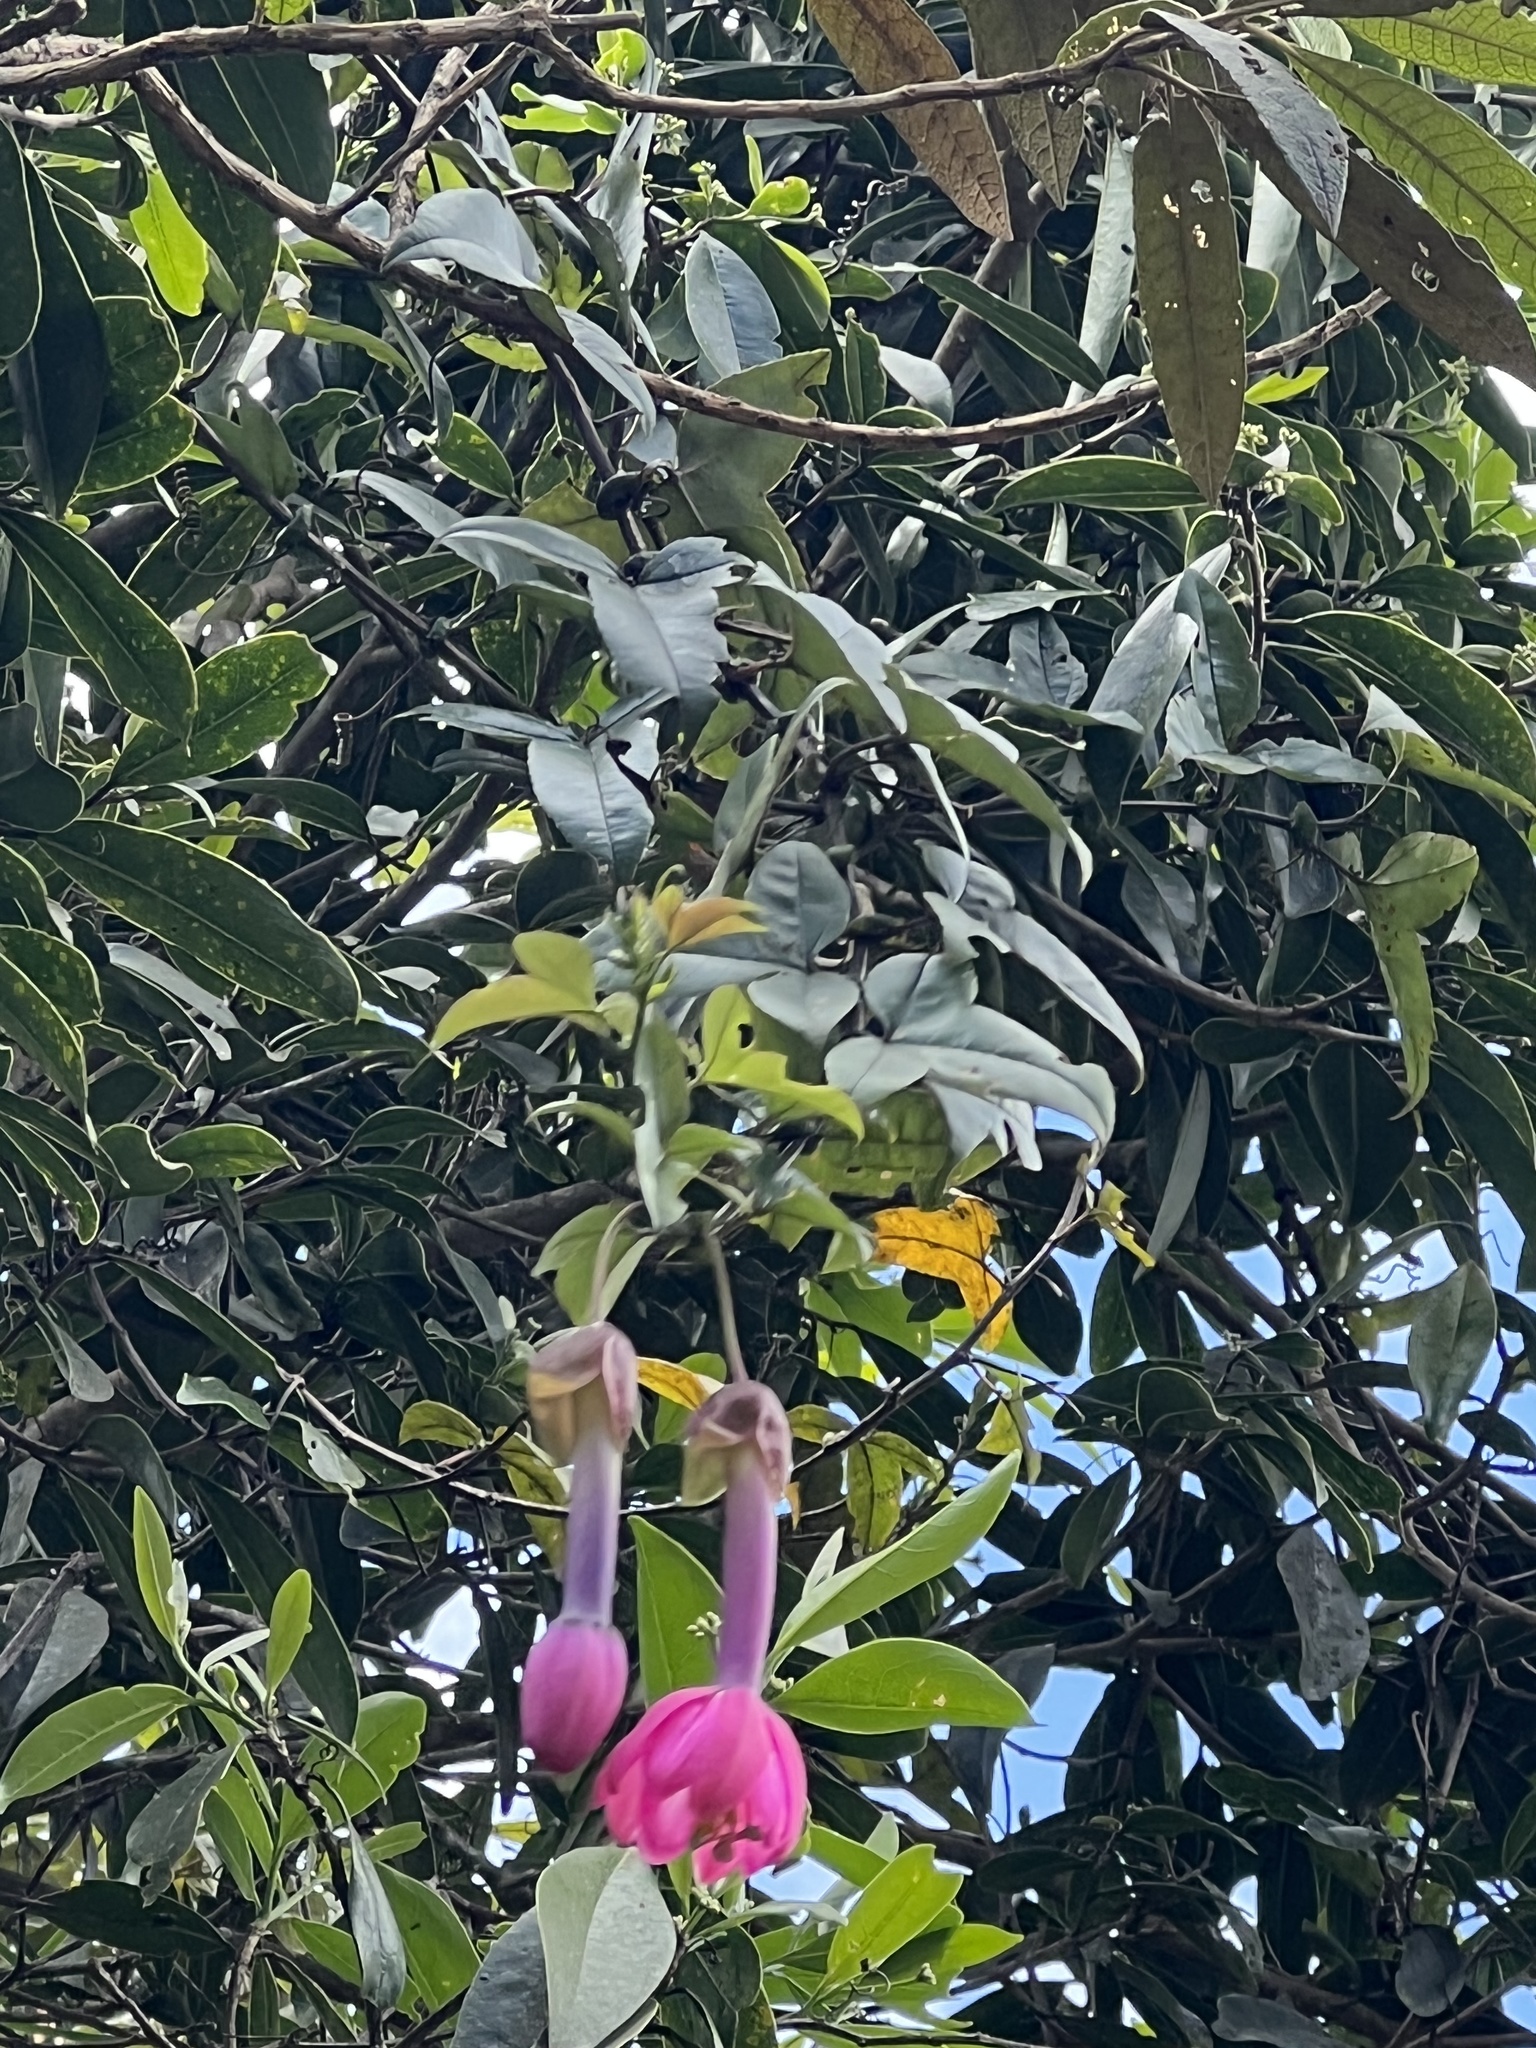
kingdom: Plantae
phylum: Tracheophyta
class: Magnoliopsida
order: Malpighiales
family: Passifloraceae
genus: Passiflora
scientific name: Passiflora cumbalensis
